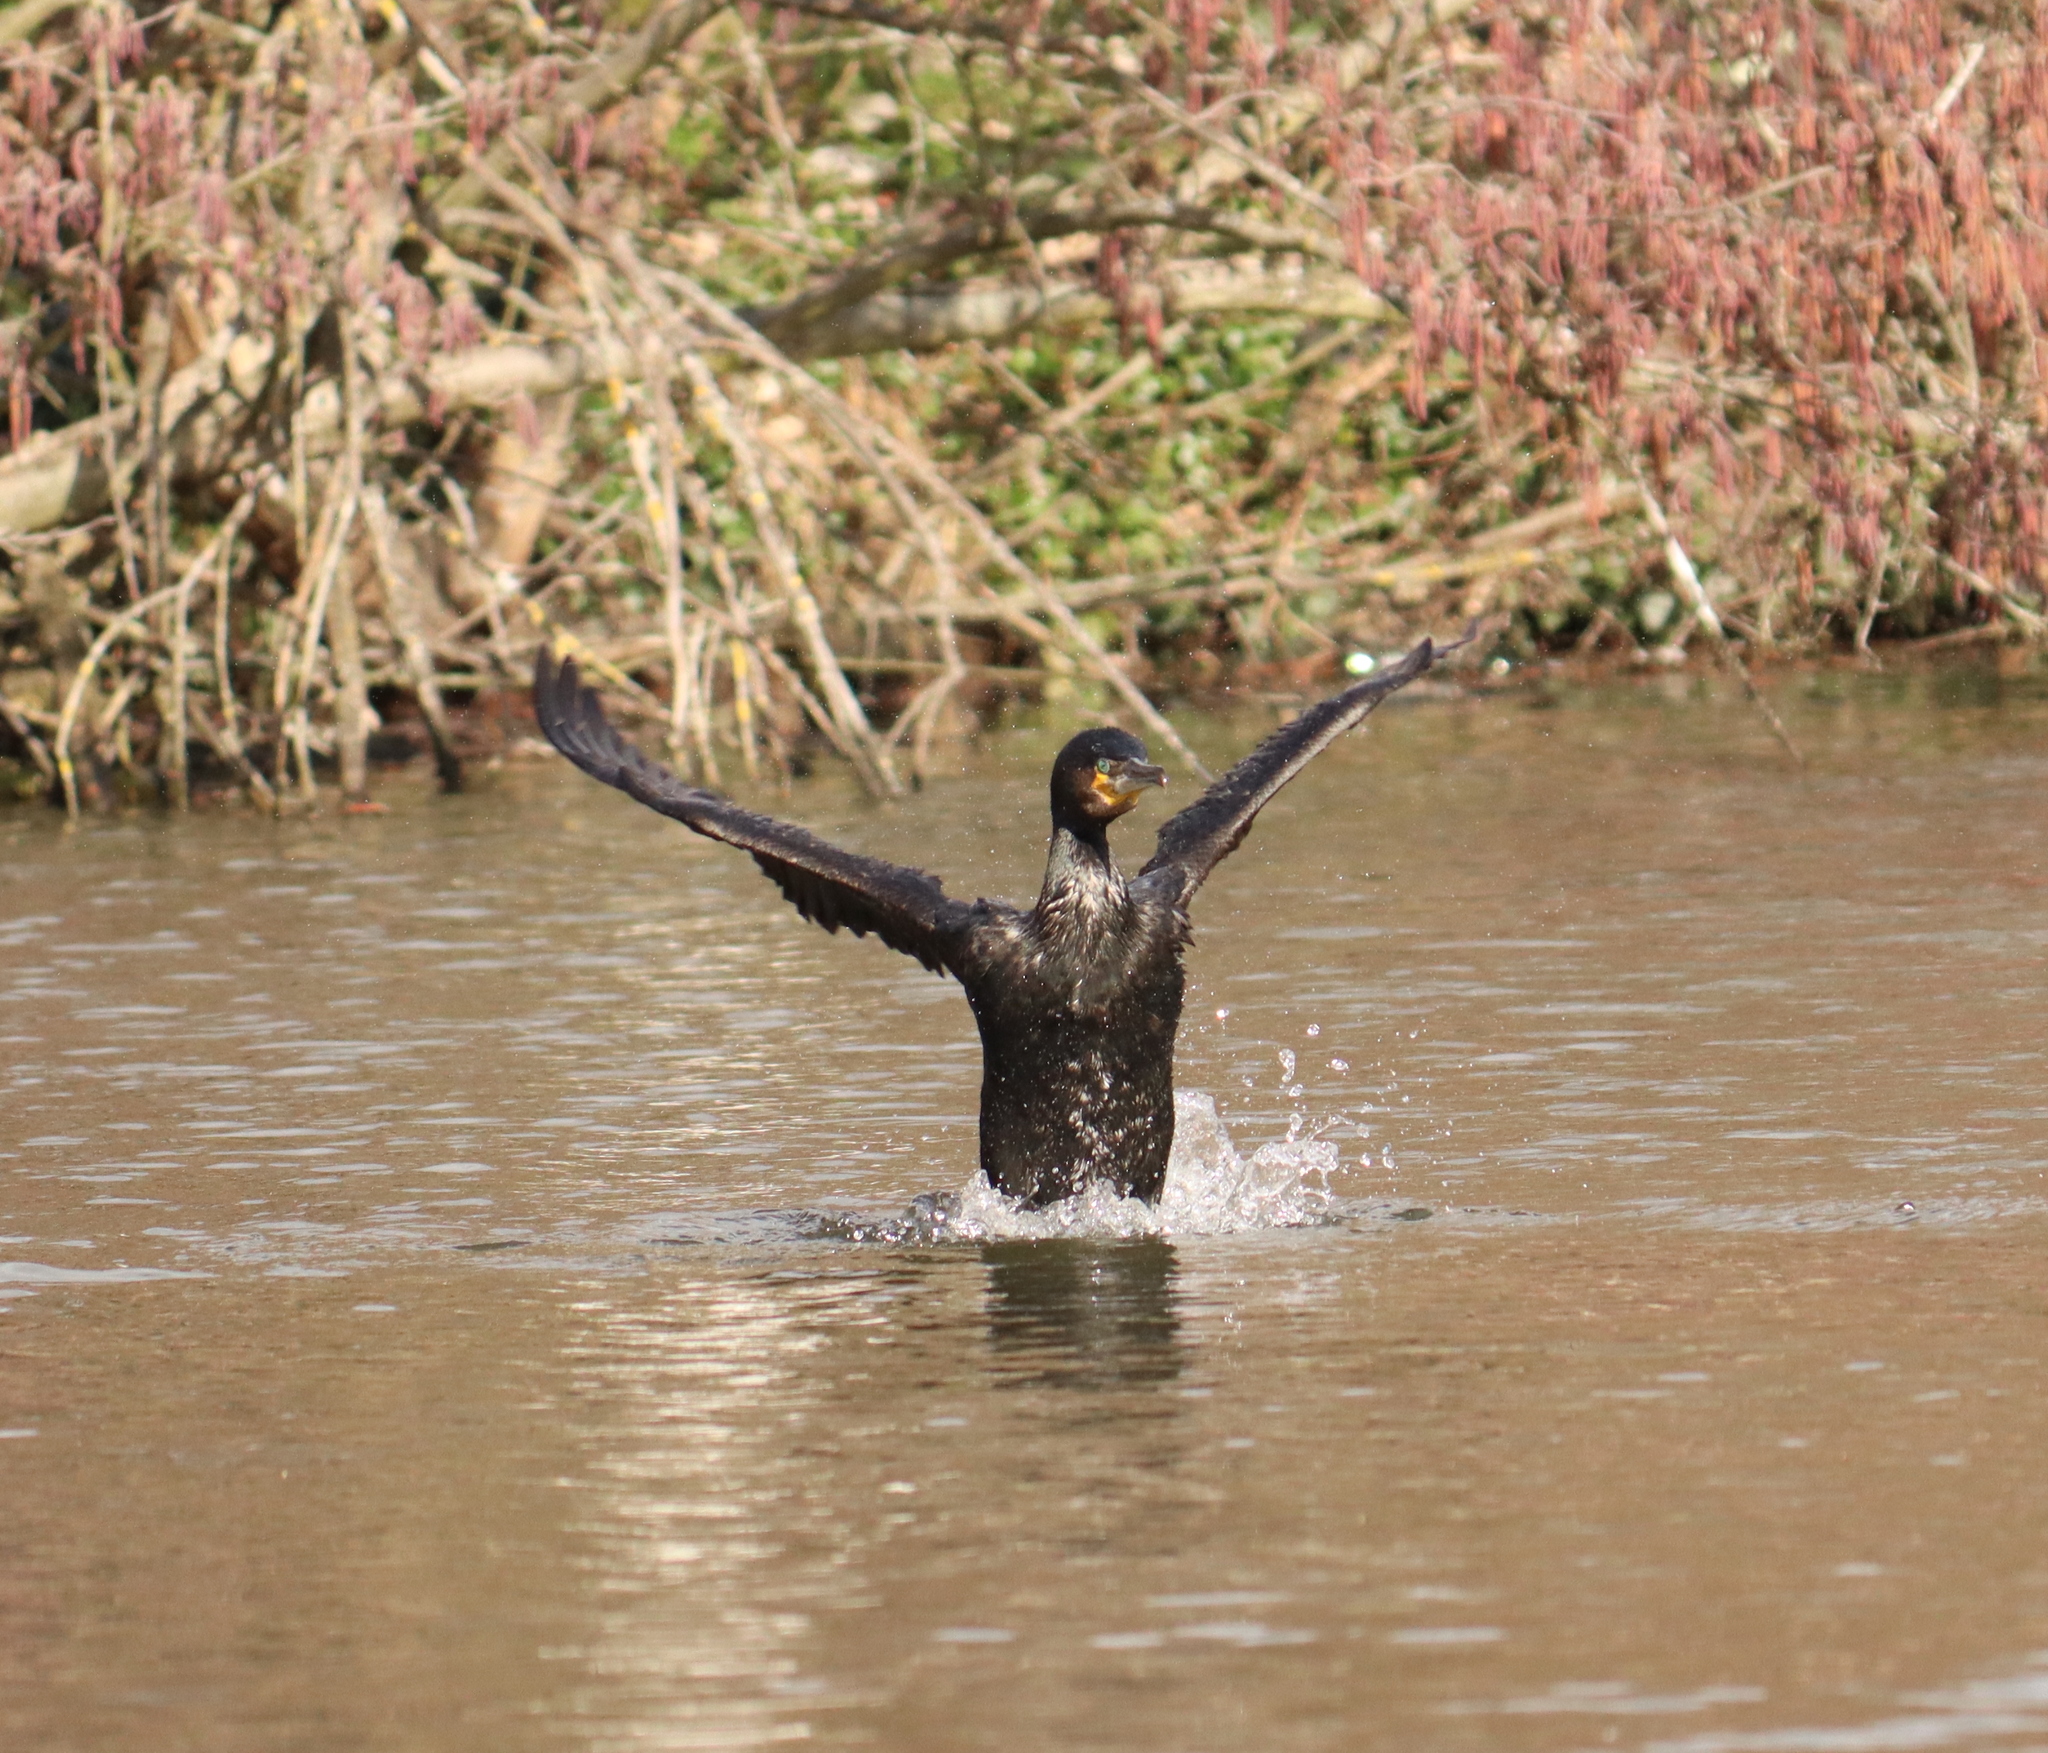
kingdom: Animalia
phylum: Chordata
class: Aves
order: Suliformes
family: Phalacrocoracidae
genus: Phalacrocorax
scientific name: Phalacrocorax carbo
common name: Great cormorant
